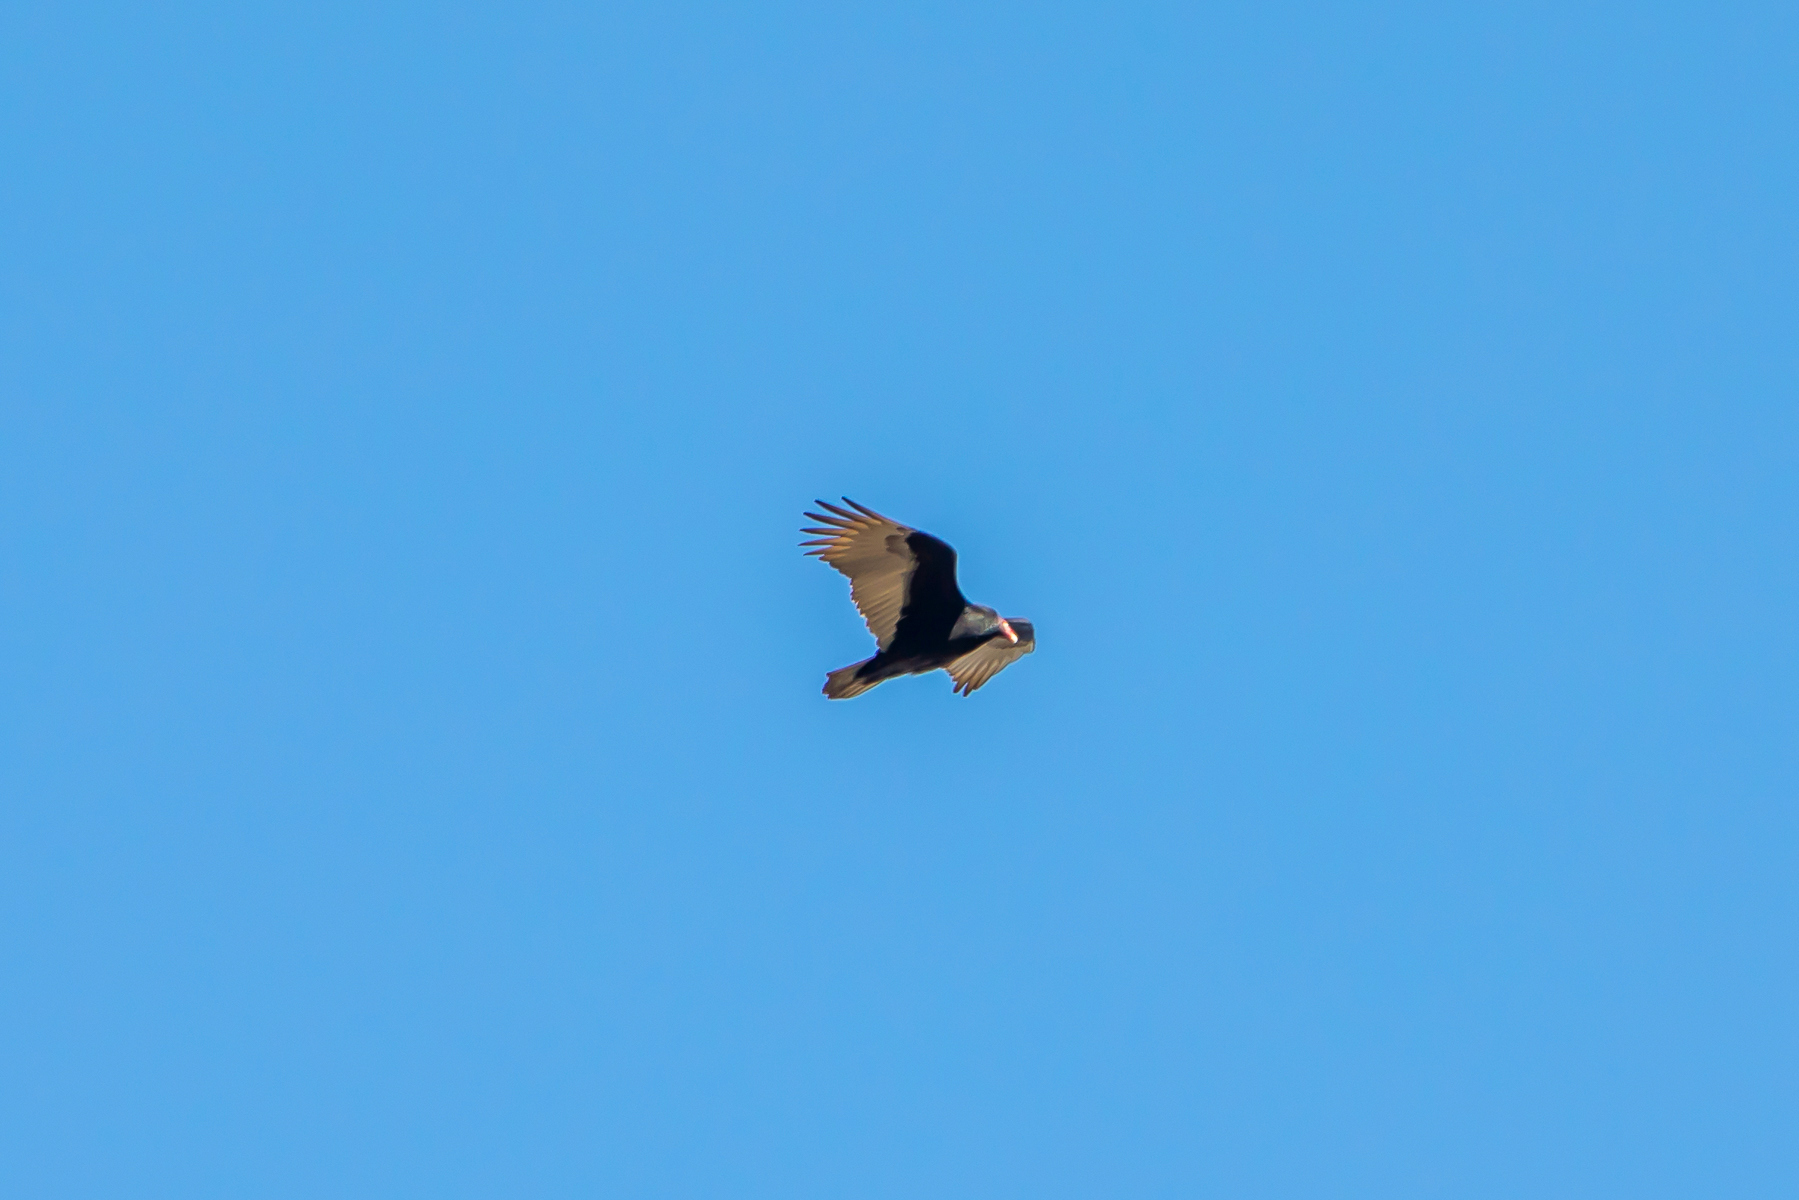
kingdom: Animalia
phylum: Chordata
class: Aves
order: Accipitriformes
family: Cathartidae
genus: Cathartes
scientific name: Cathartes aura
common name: Turkey vulture
